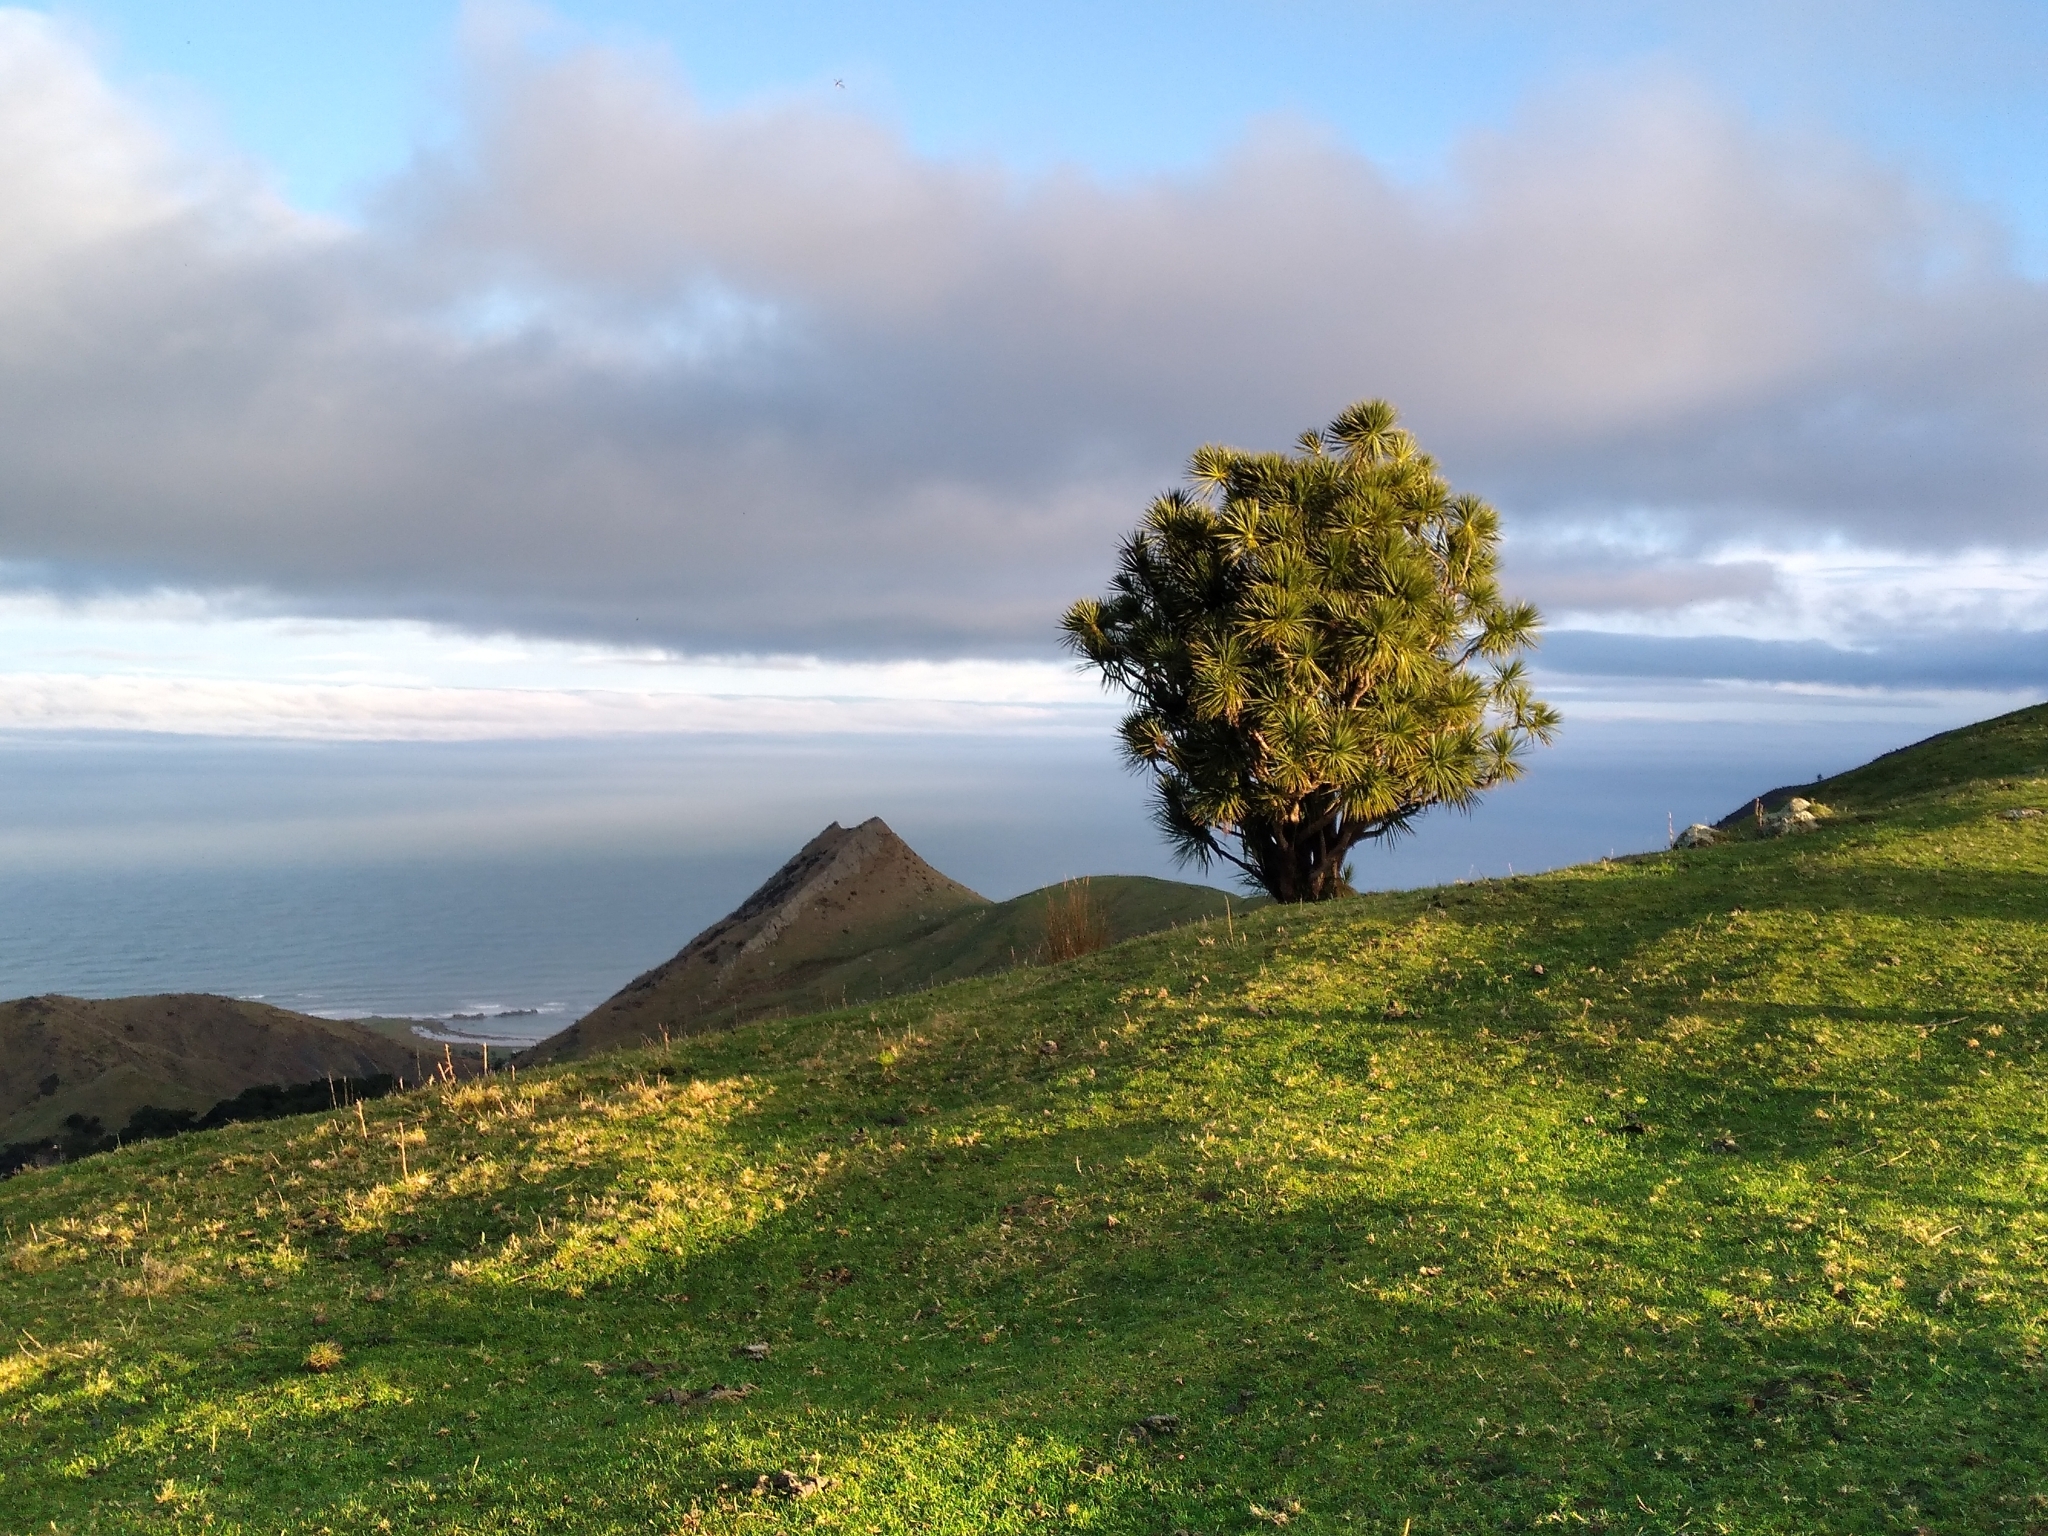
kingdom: Plantae
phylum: Tracheophyta
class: Liliopsida
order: Asparagales
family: Asparagaceae
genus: Cordyline
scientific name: Cordyline australis
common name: Cabbage-palm
